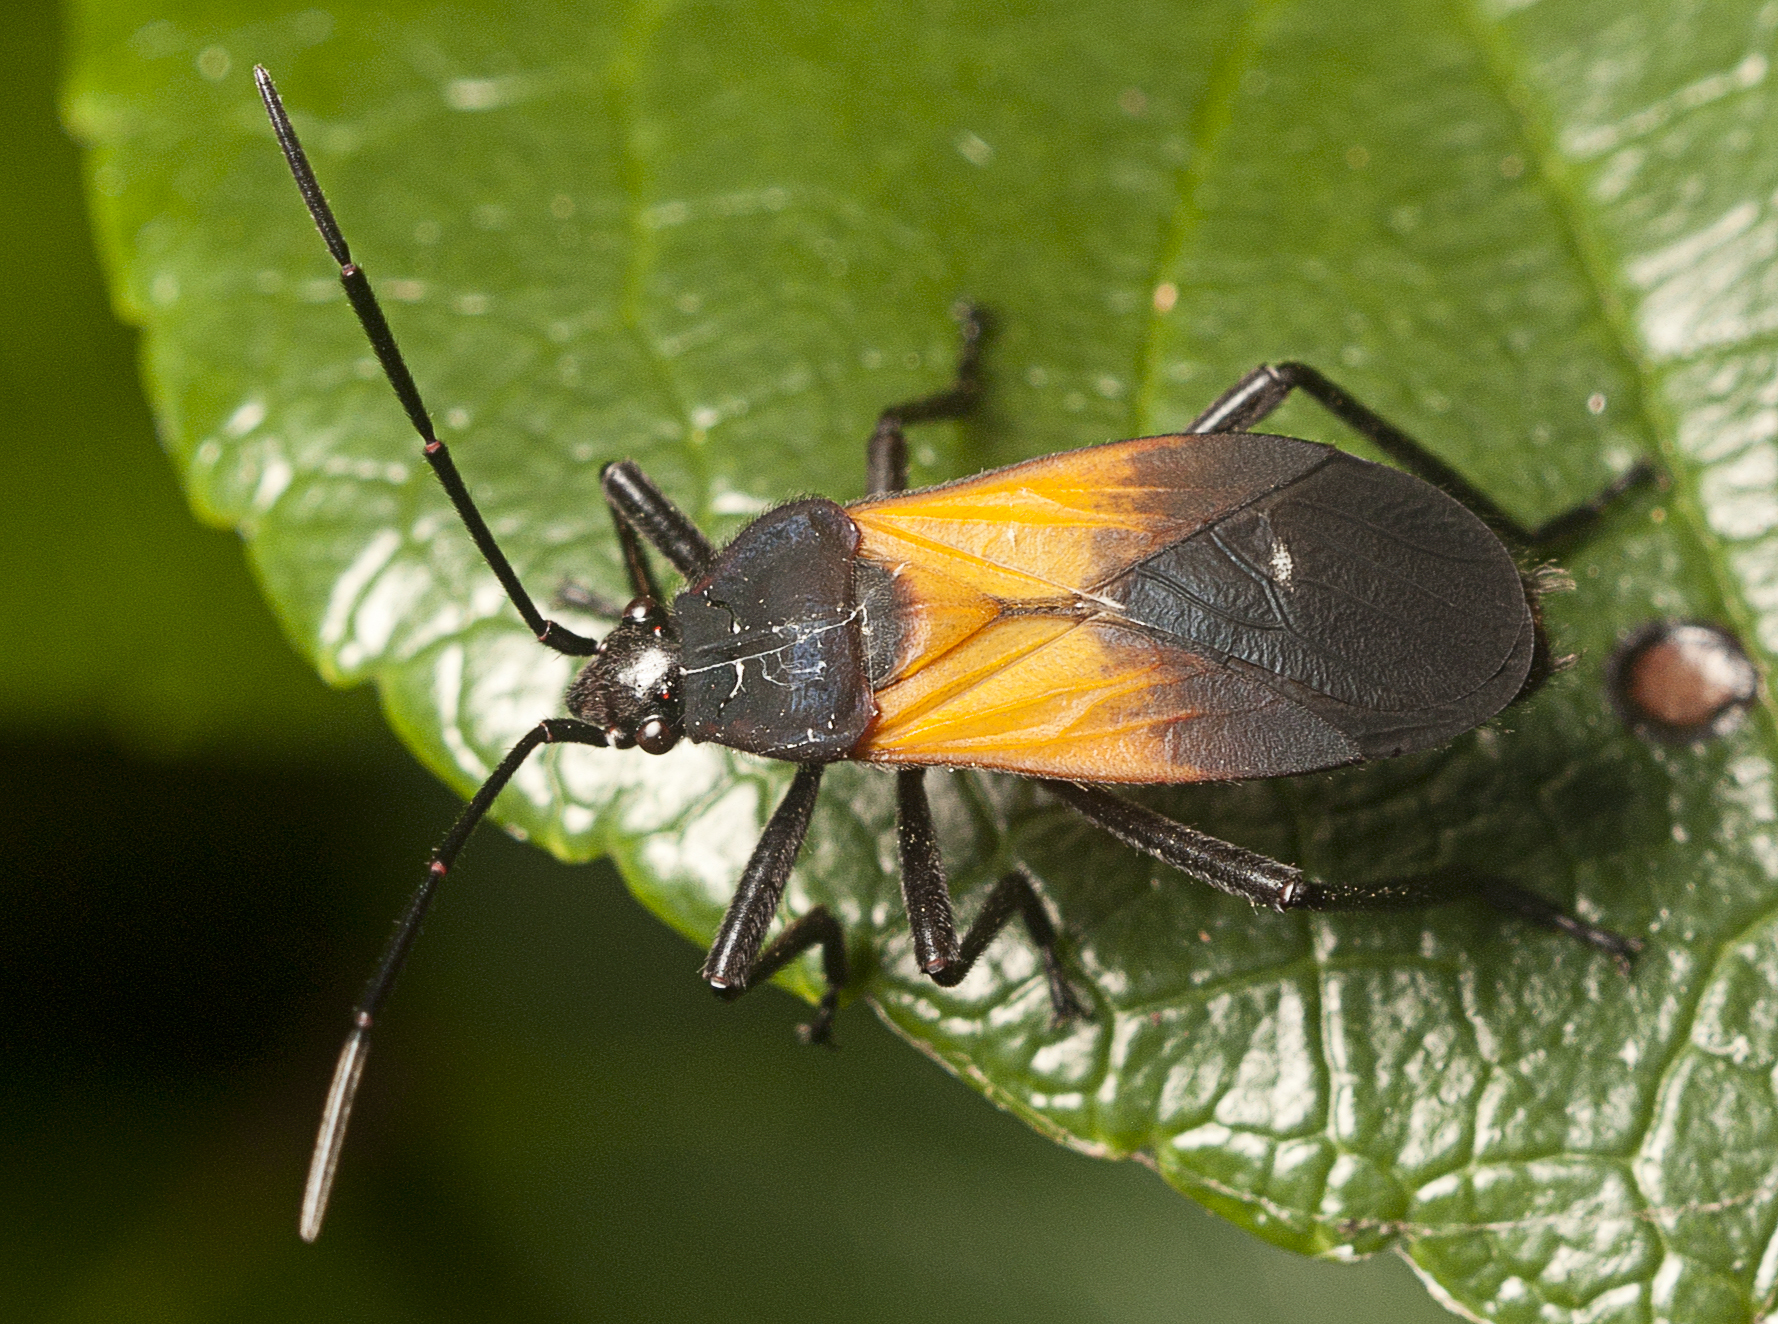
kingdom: Animalia
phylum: Arthropoda
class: Insecta
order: Hemiptera
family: Lygaeidae
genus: Oncopeltus
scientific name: Oncopeltus sordidus
